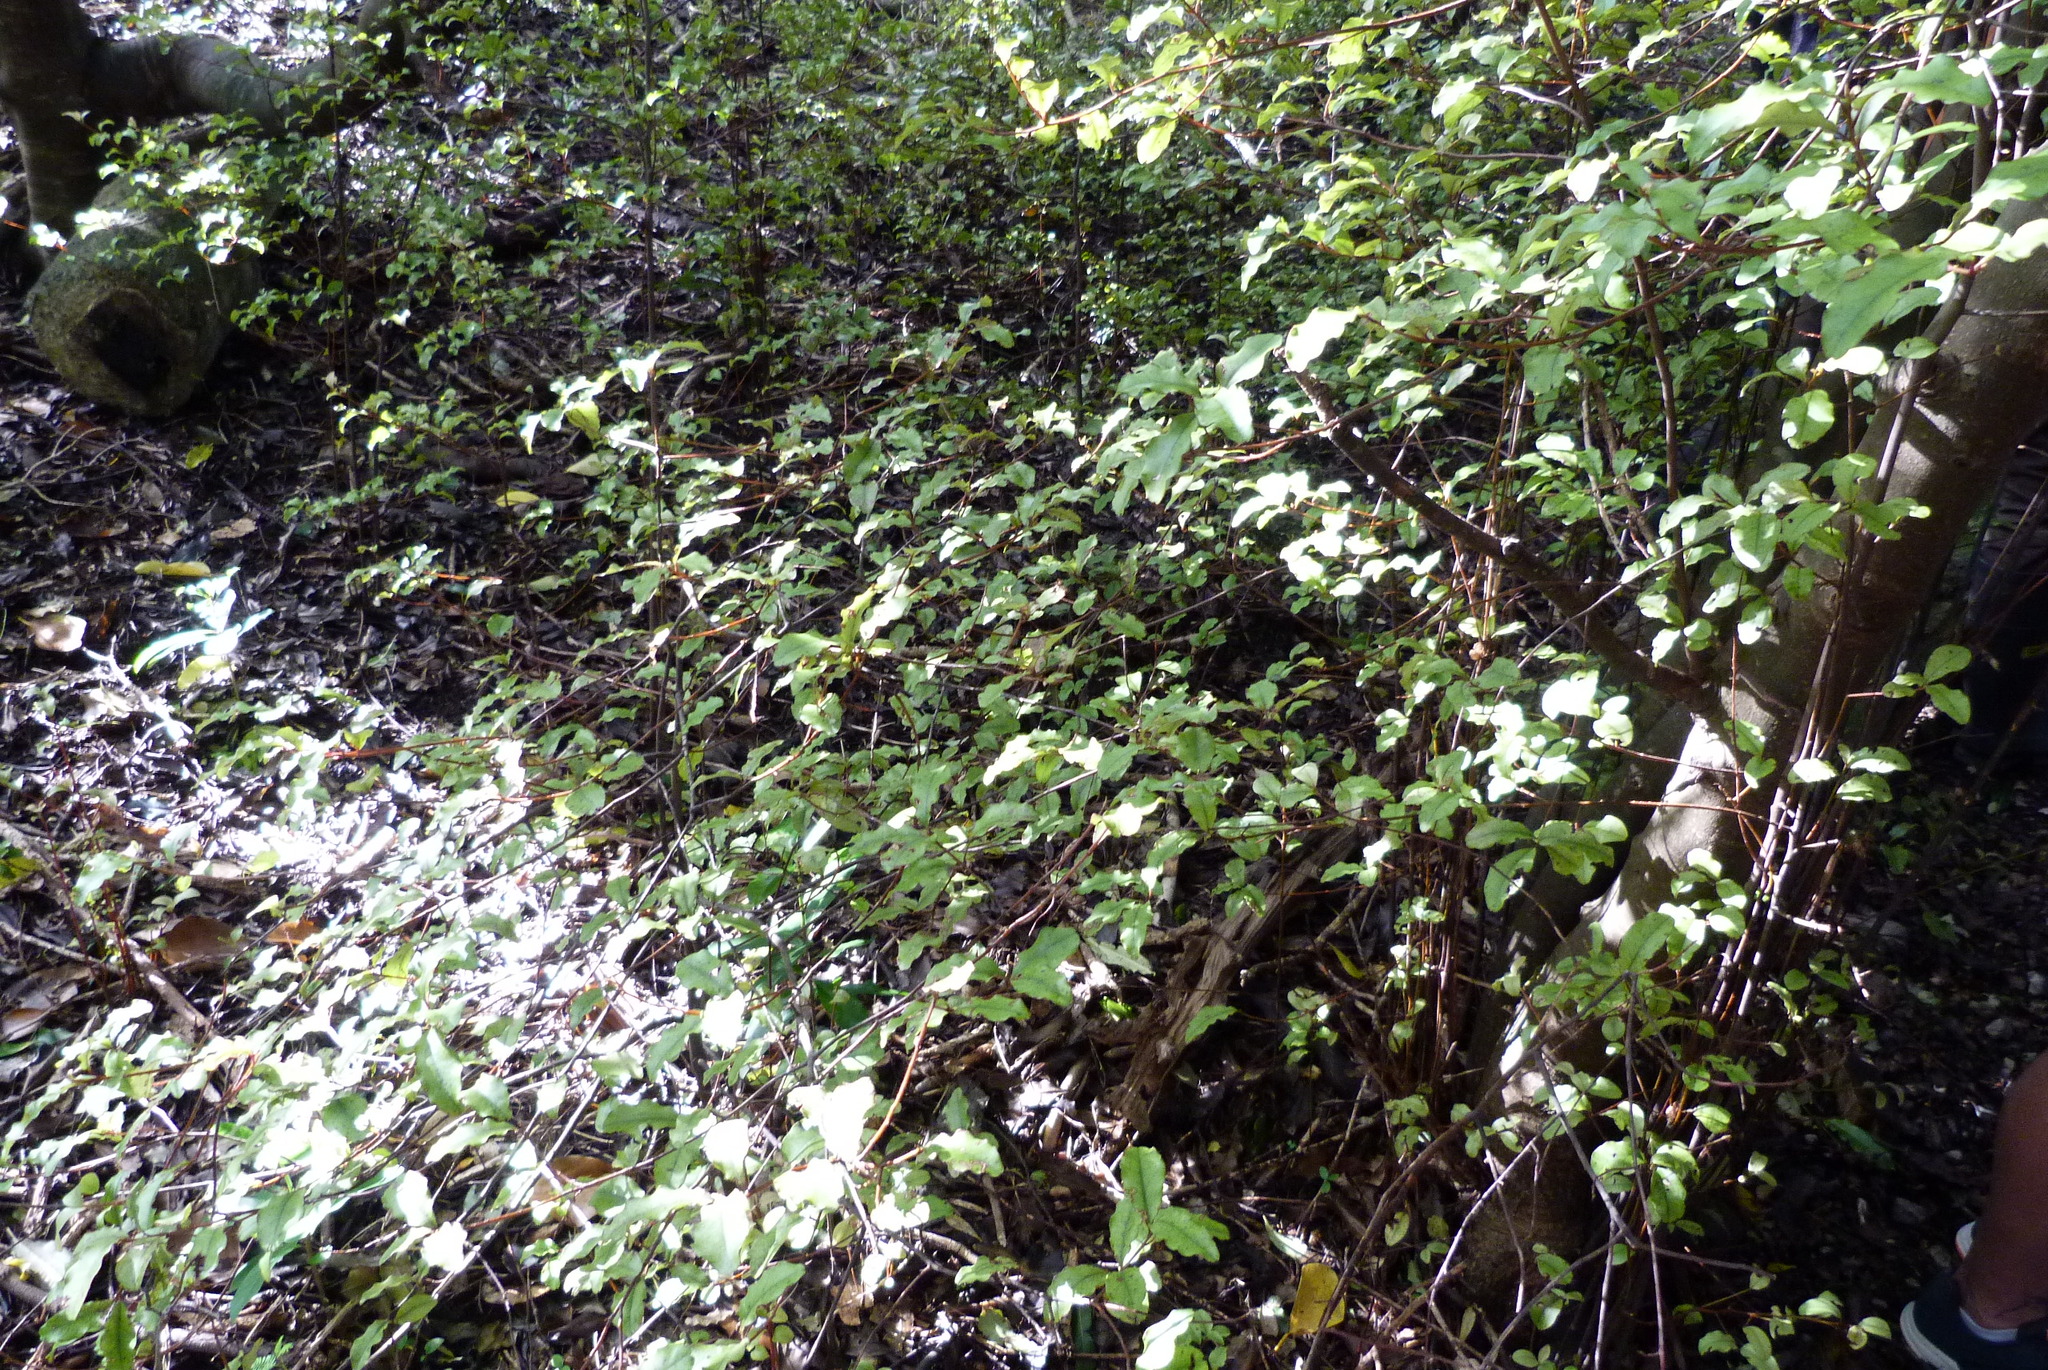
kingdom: Plantae
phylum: Tracheophyta
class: Magnoliopsida
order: Ericales
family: Primulaceae
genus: Myrsine
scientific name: Myrsine australis
